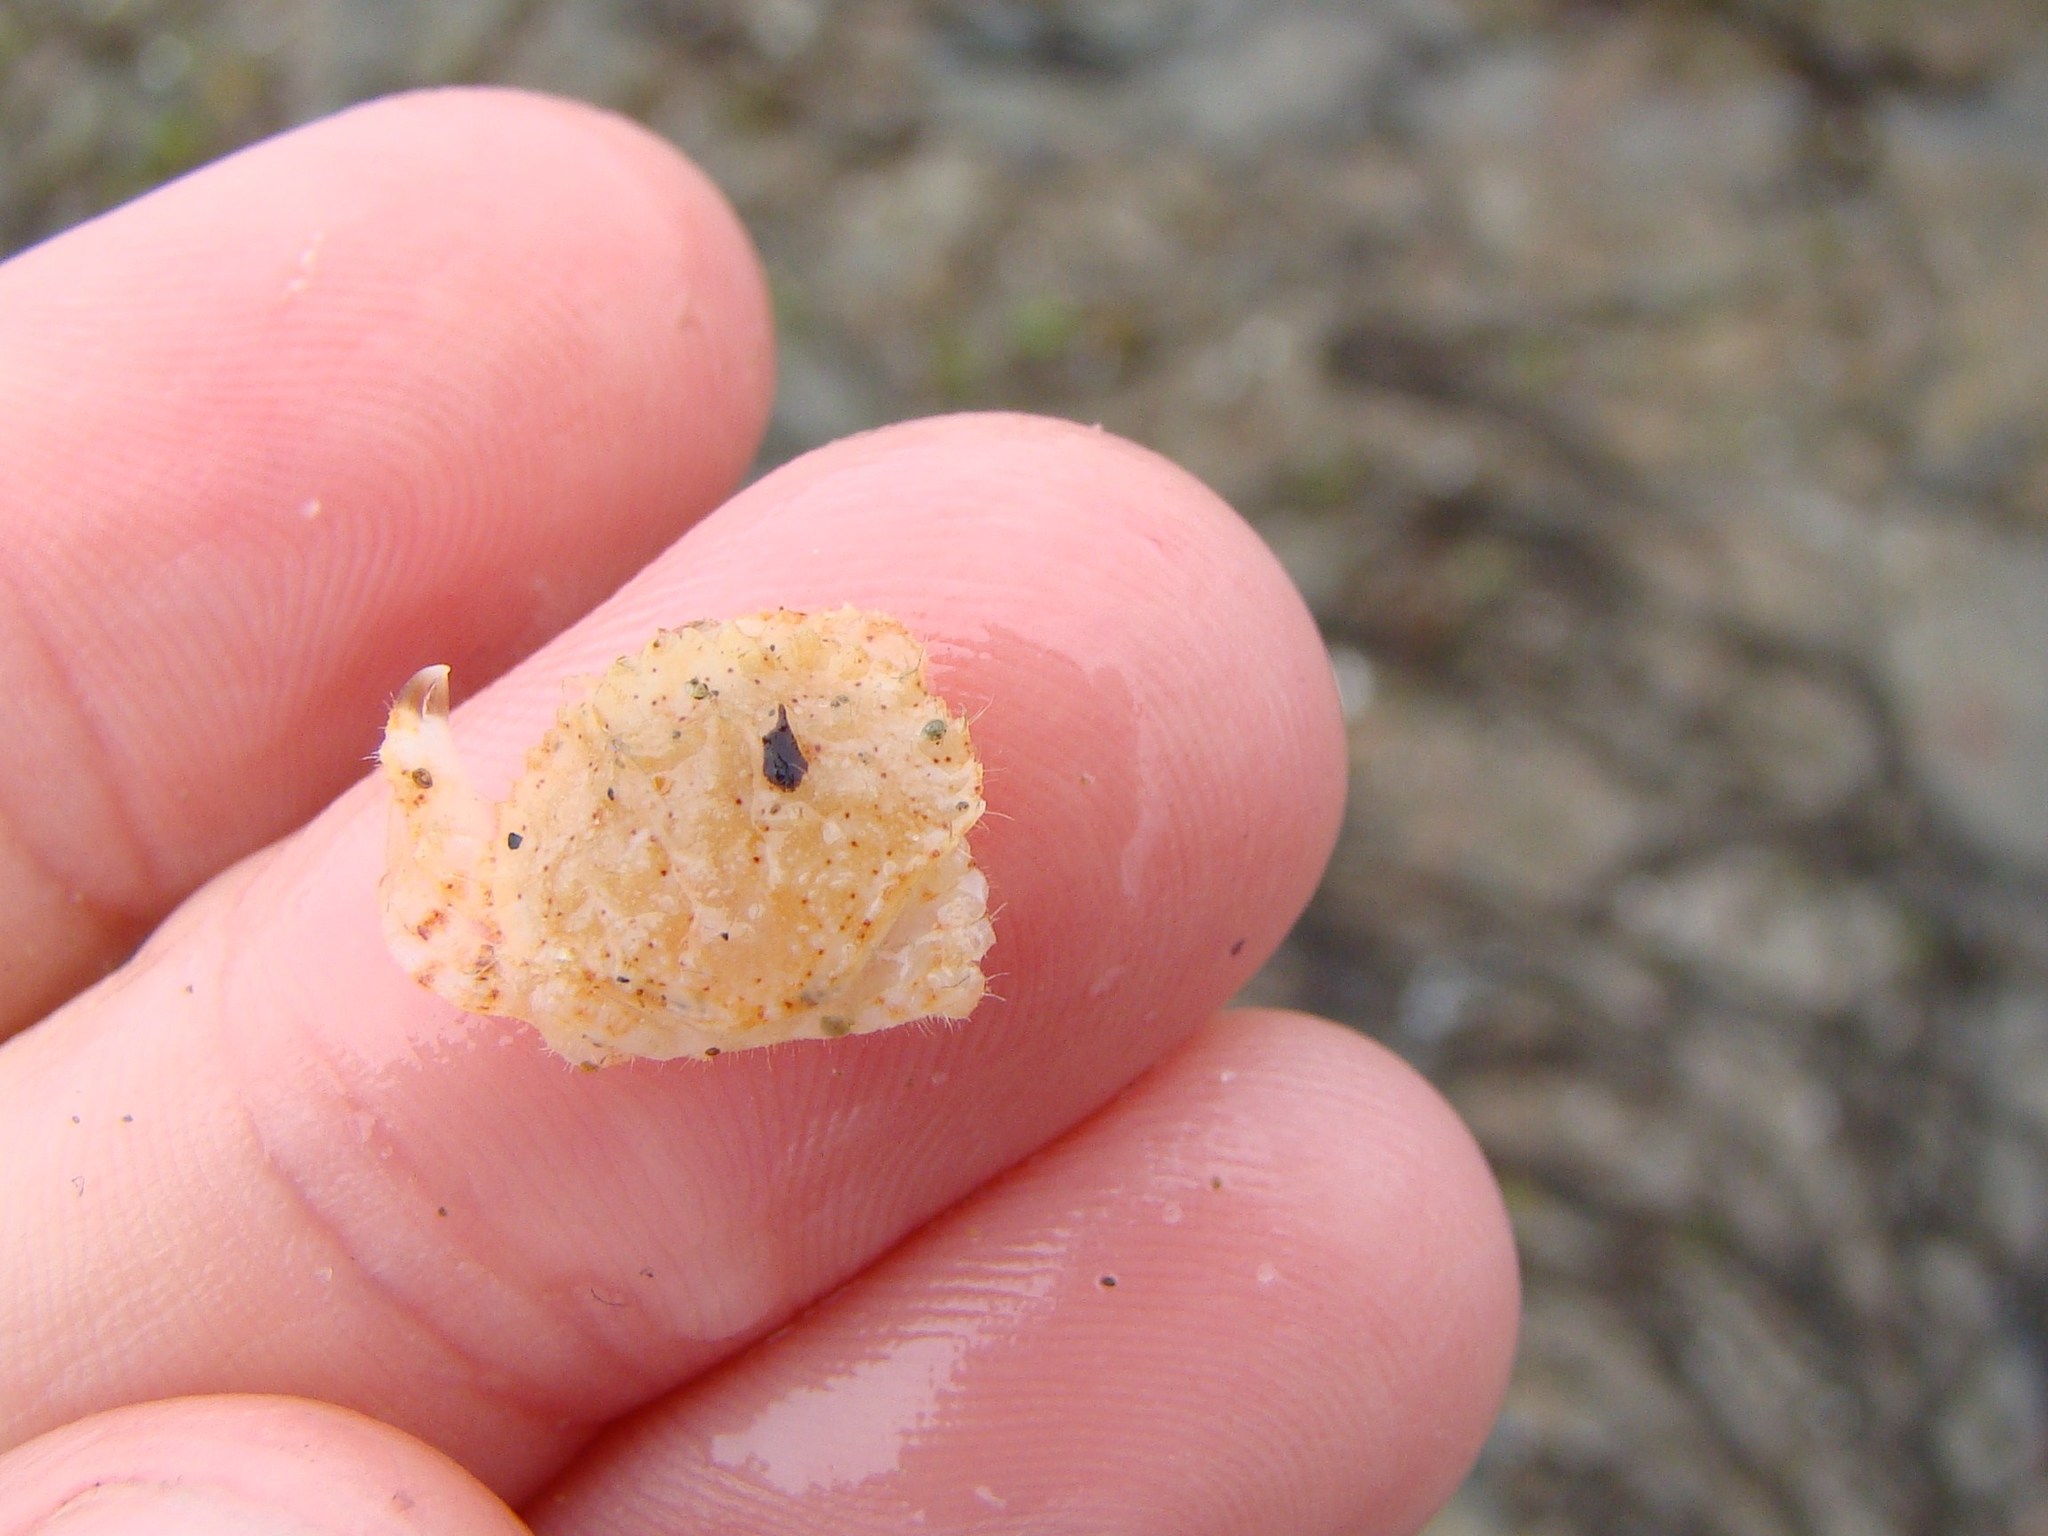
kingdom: Animalia
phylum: Arthropoda
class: Malacostraca
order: Decapoda
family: Cancridae
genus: Metacarcinus
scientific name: Metacarcinus novaezelandiae
